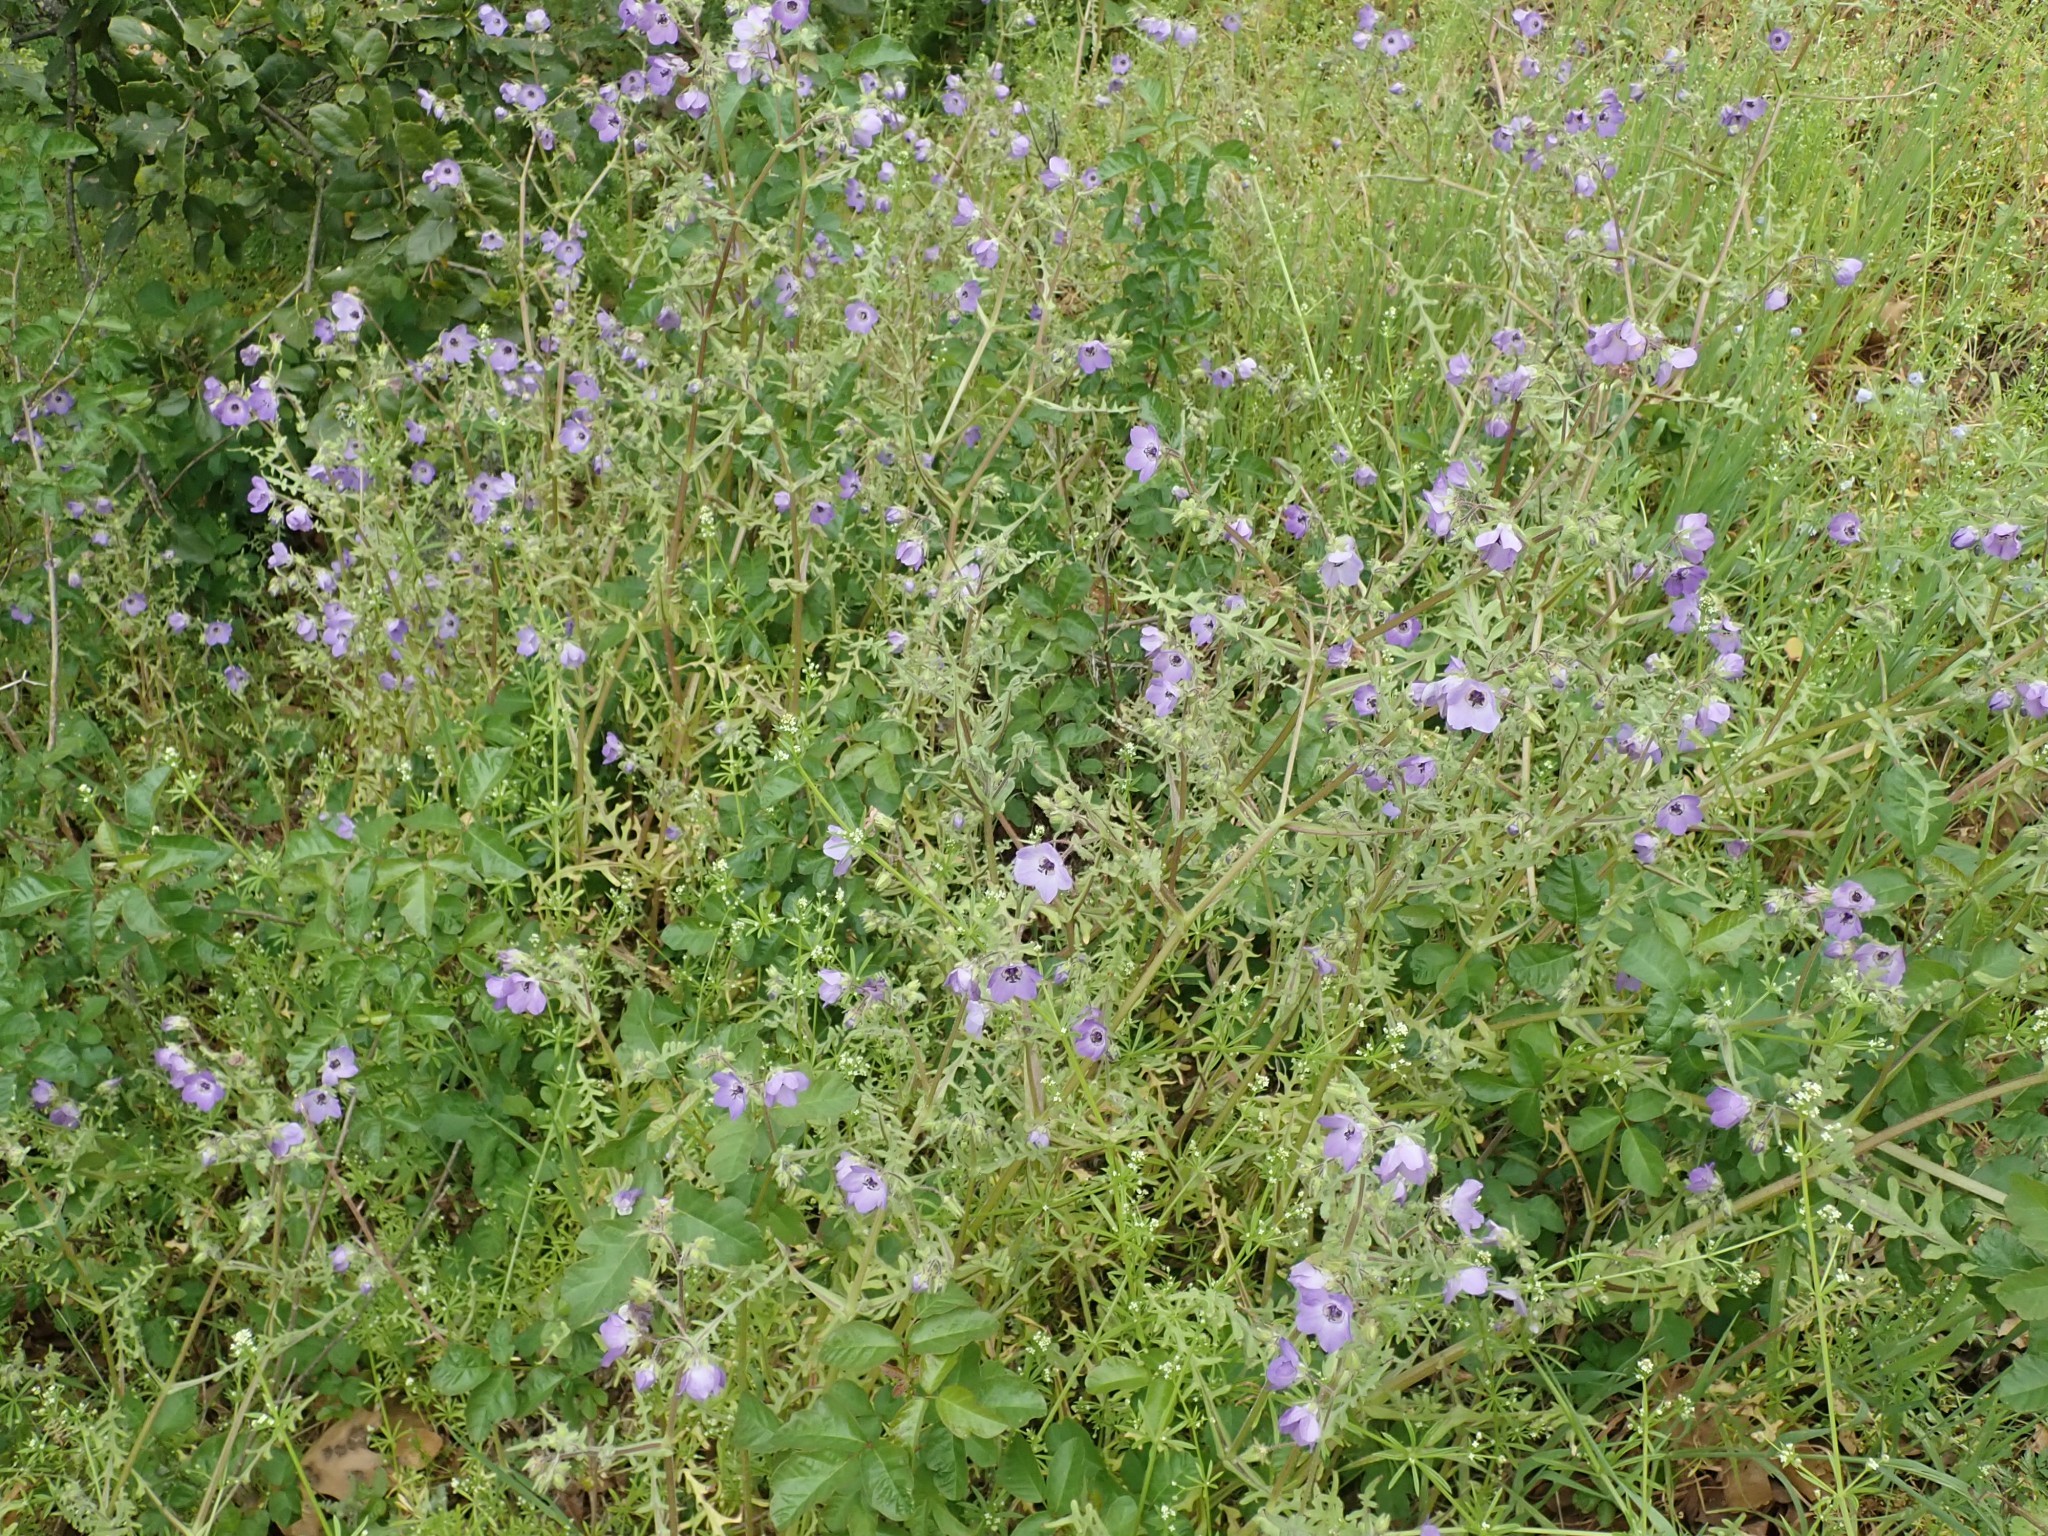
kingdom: Plantae
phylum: Tracheophyta
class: Magnoliopsida
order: Boraginales
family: Hydrophyllaceae
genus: Pholistoma
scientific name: Pholistoma auritum
